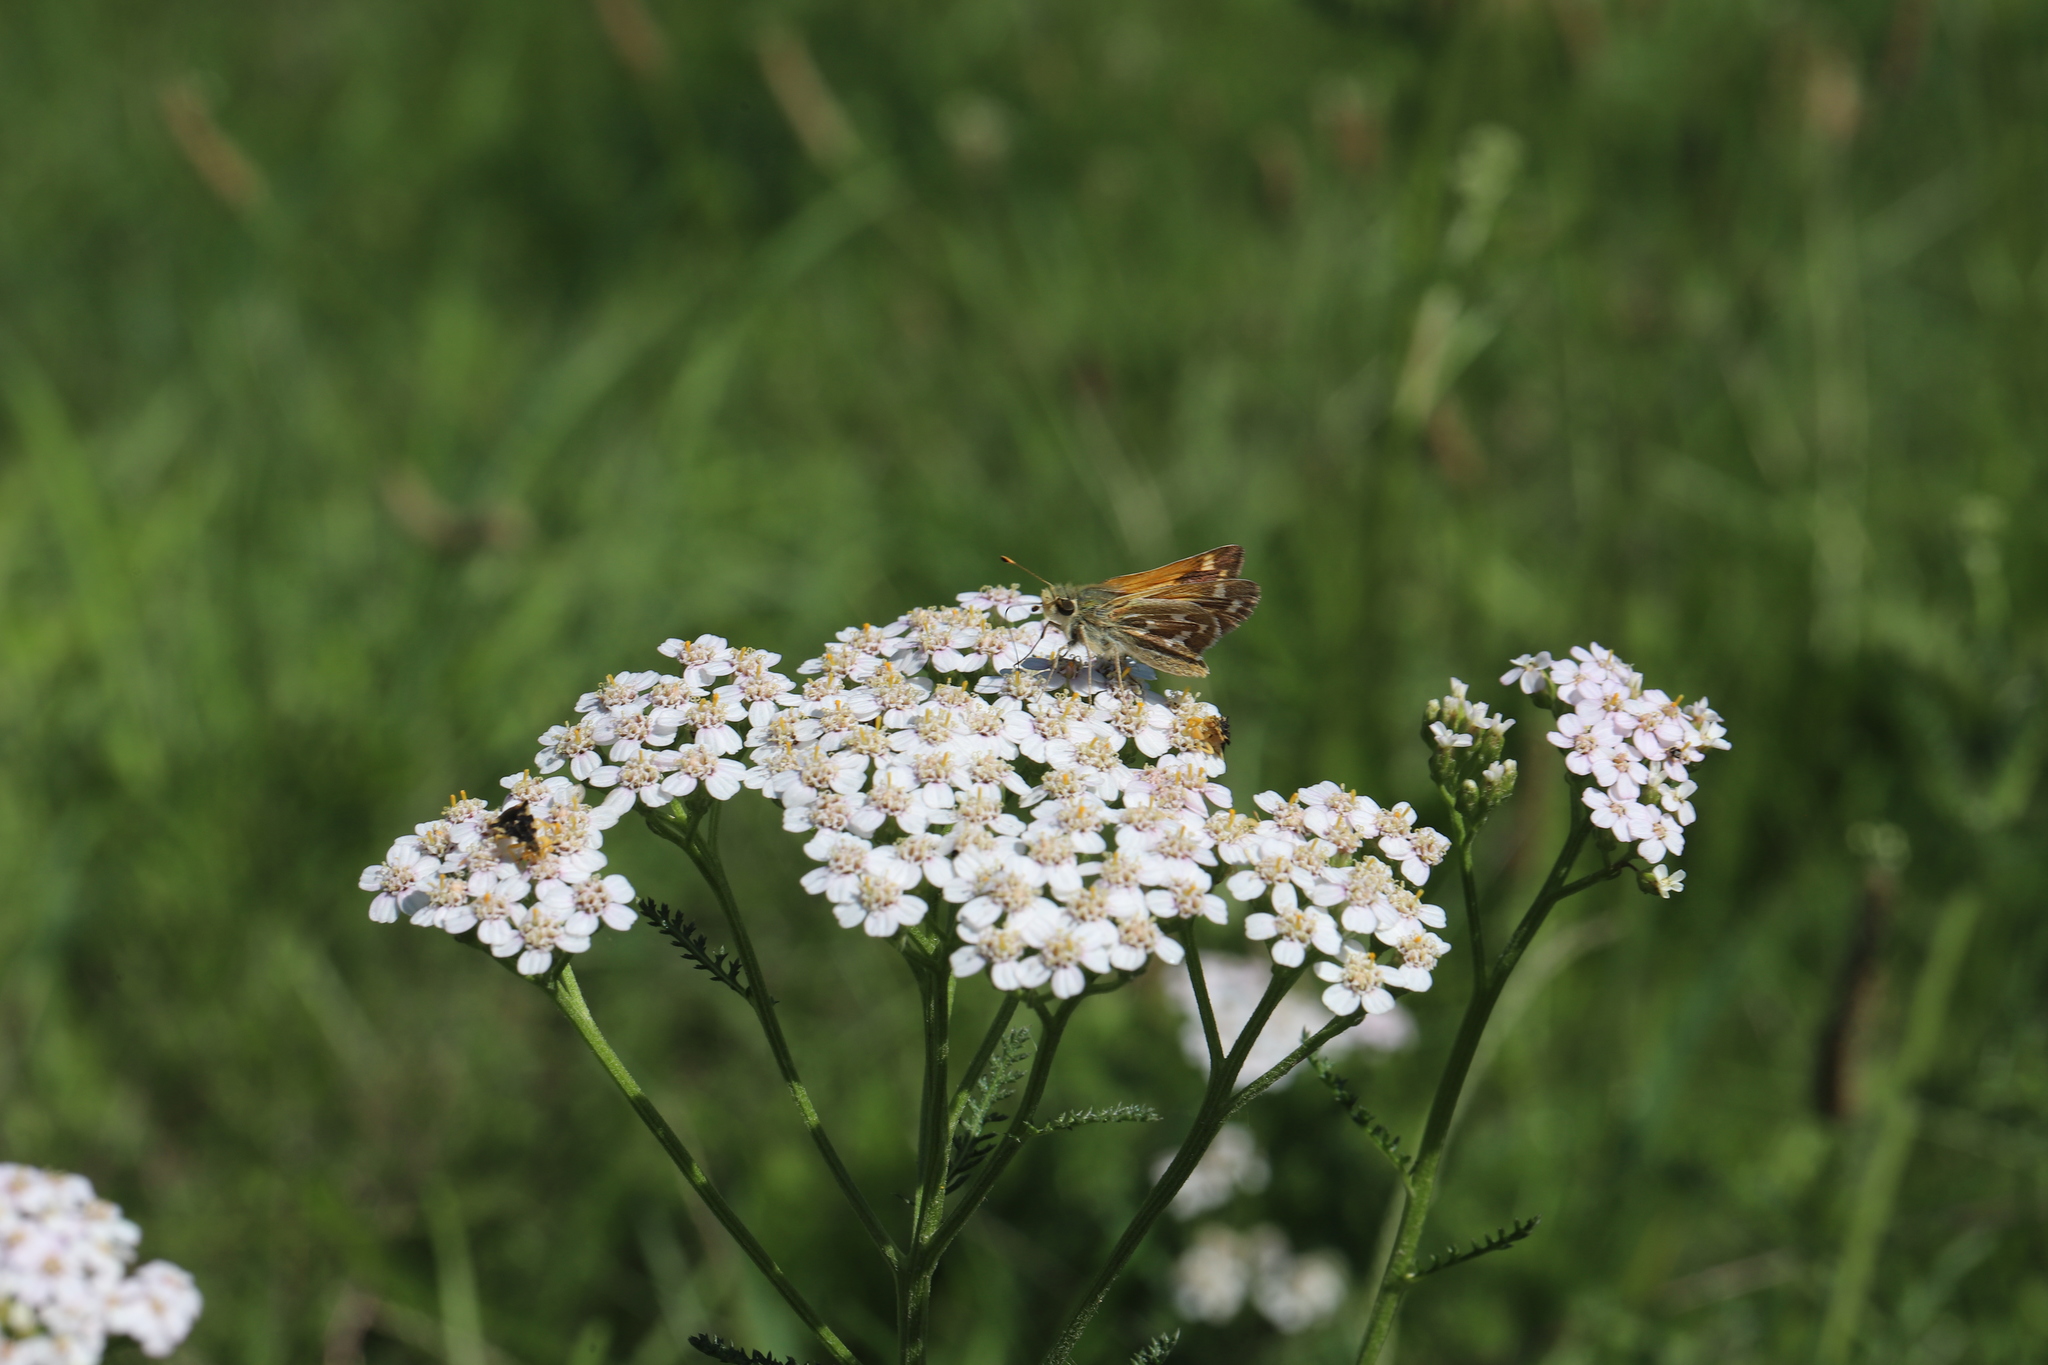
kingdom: Plantae
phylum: Tracheophyta
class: Magnoliopsida
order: Asterales
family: Asteraceae
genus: Achillea
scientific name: Achillea millefolium
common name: Yarrow
